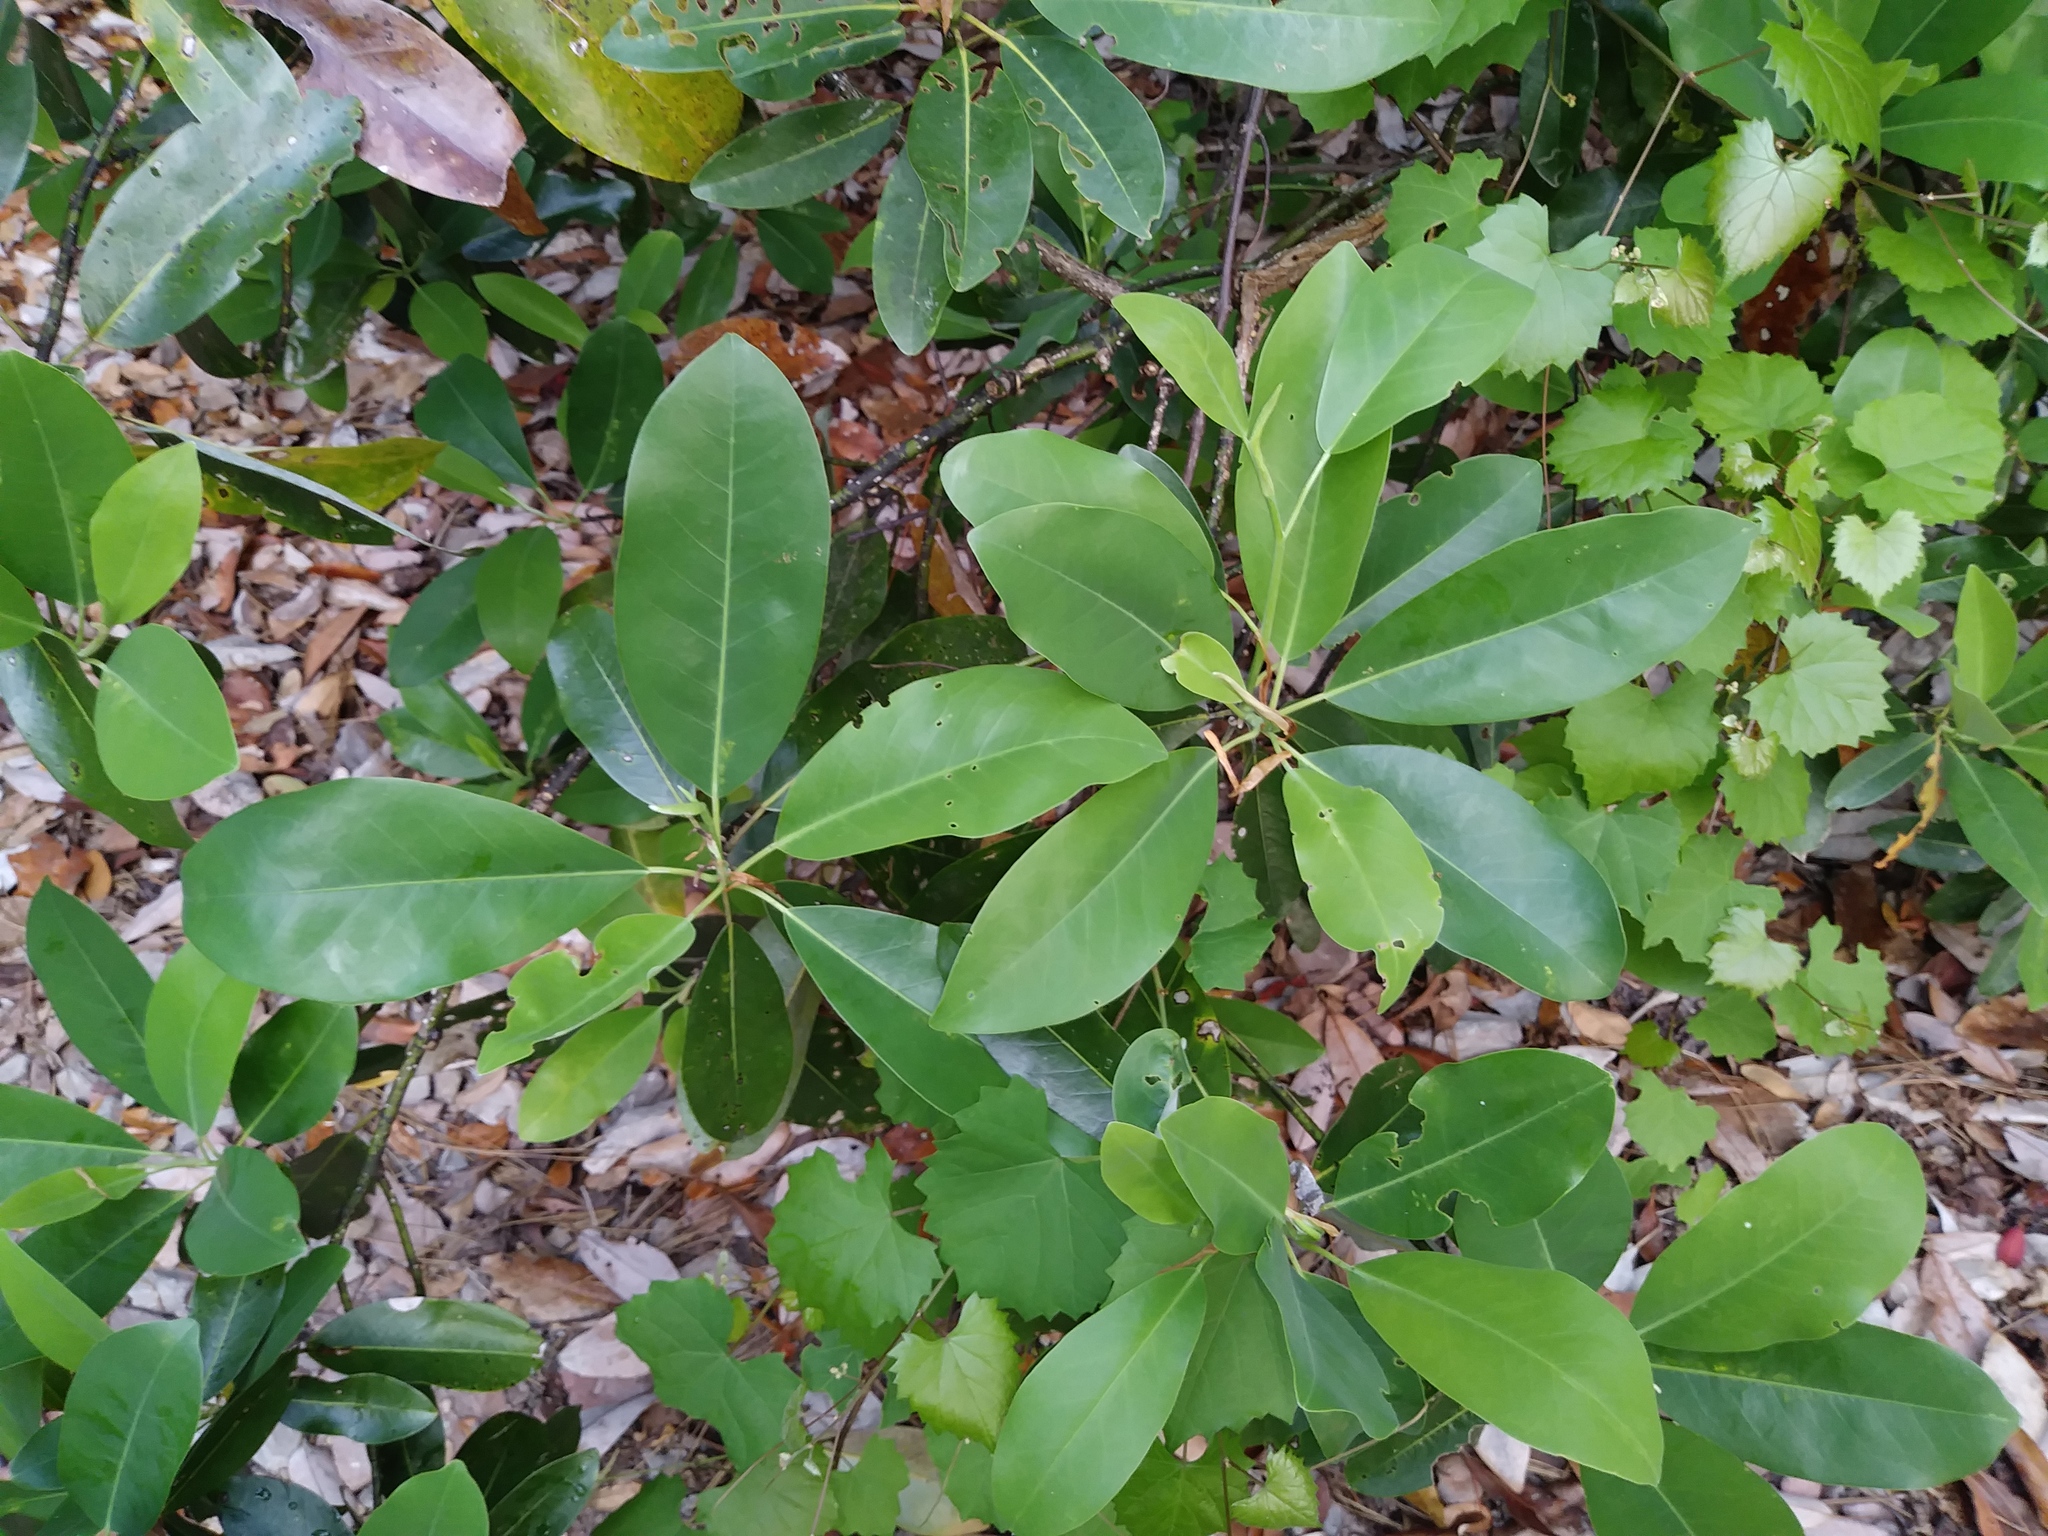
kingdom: Plantae
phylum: Tracheophyta
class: Magnoliopsida
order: Magnoliales
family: Magnoliaceae
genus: Magnolia
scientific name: Magnolia virginiana
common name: Swamp bay
